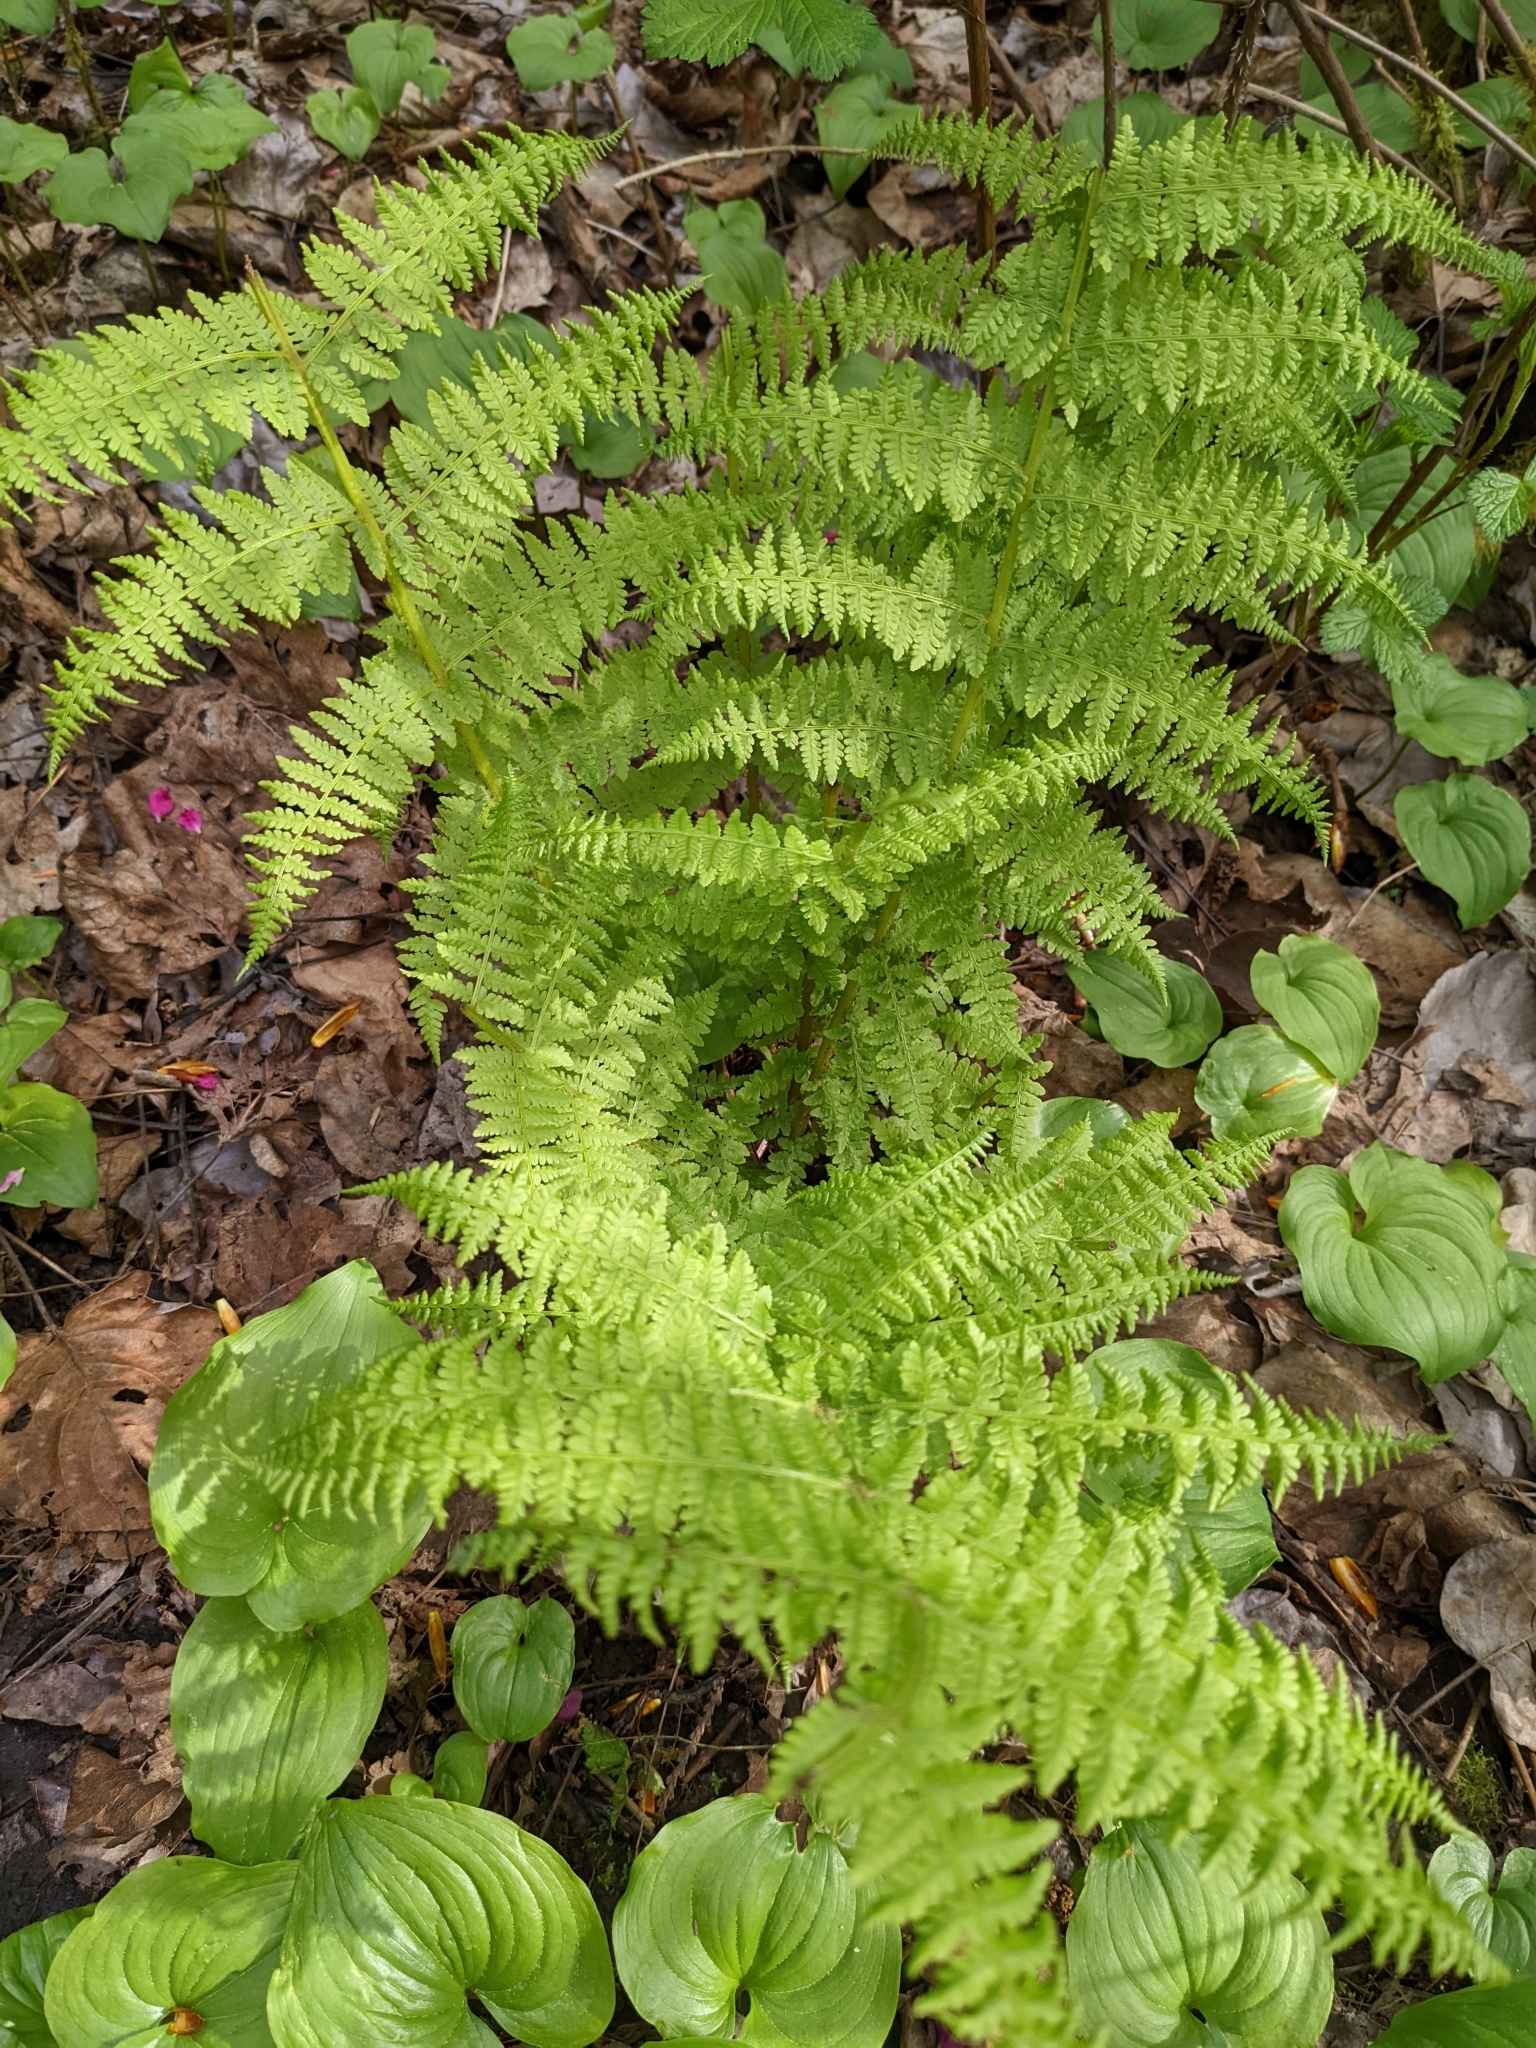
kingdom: Plantae
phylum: Tracheophyta
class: Polypodiopsida
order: Polypodiales
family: Athyriaceae
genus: Athyrium
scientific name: Athyrium filix-femina
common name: Lady fern
